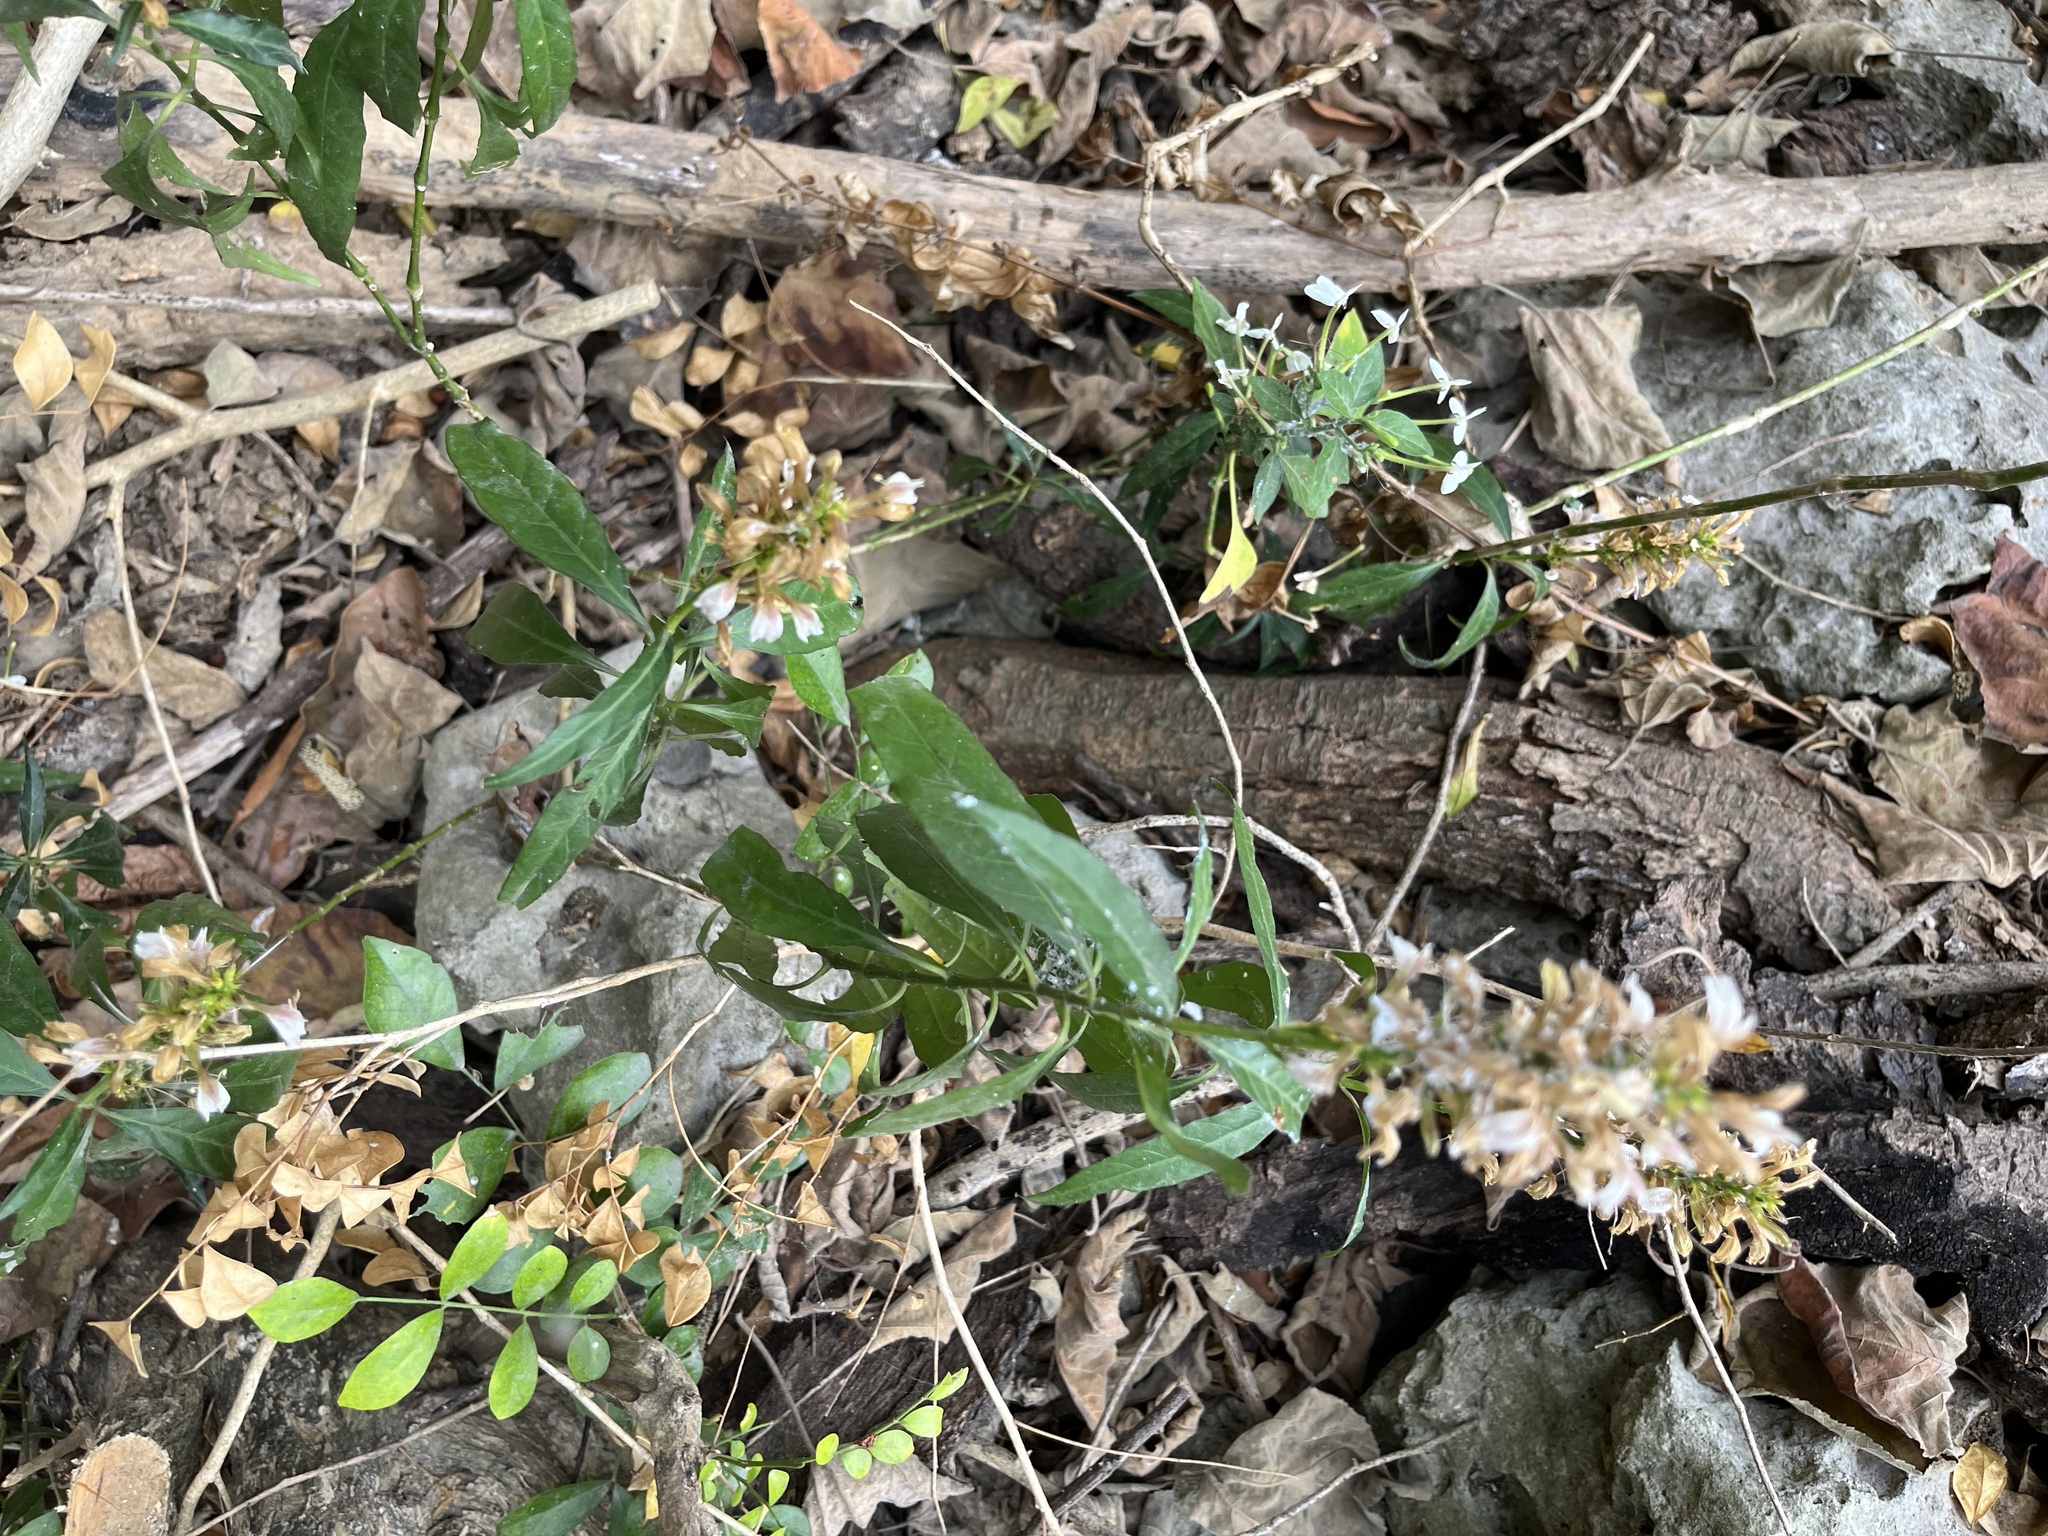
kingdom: Plantae
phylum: Tracheophyta
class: Magnoliopsida
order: Lamiales
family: Acanthaceae
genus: Justicia
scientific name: Justicia gendarussa
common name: Warer willow
